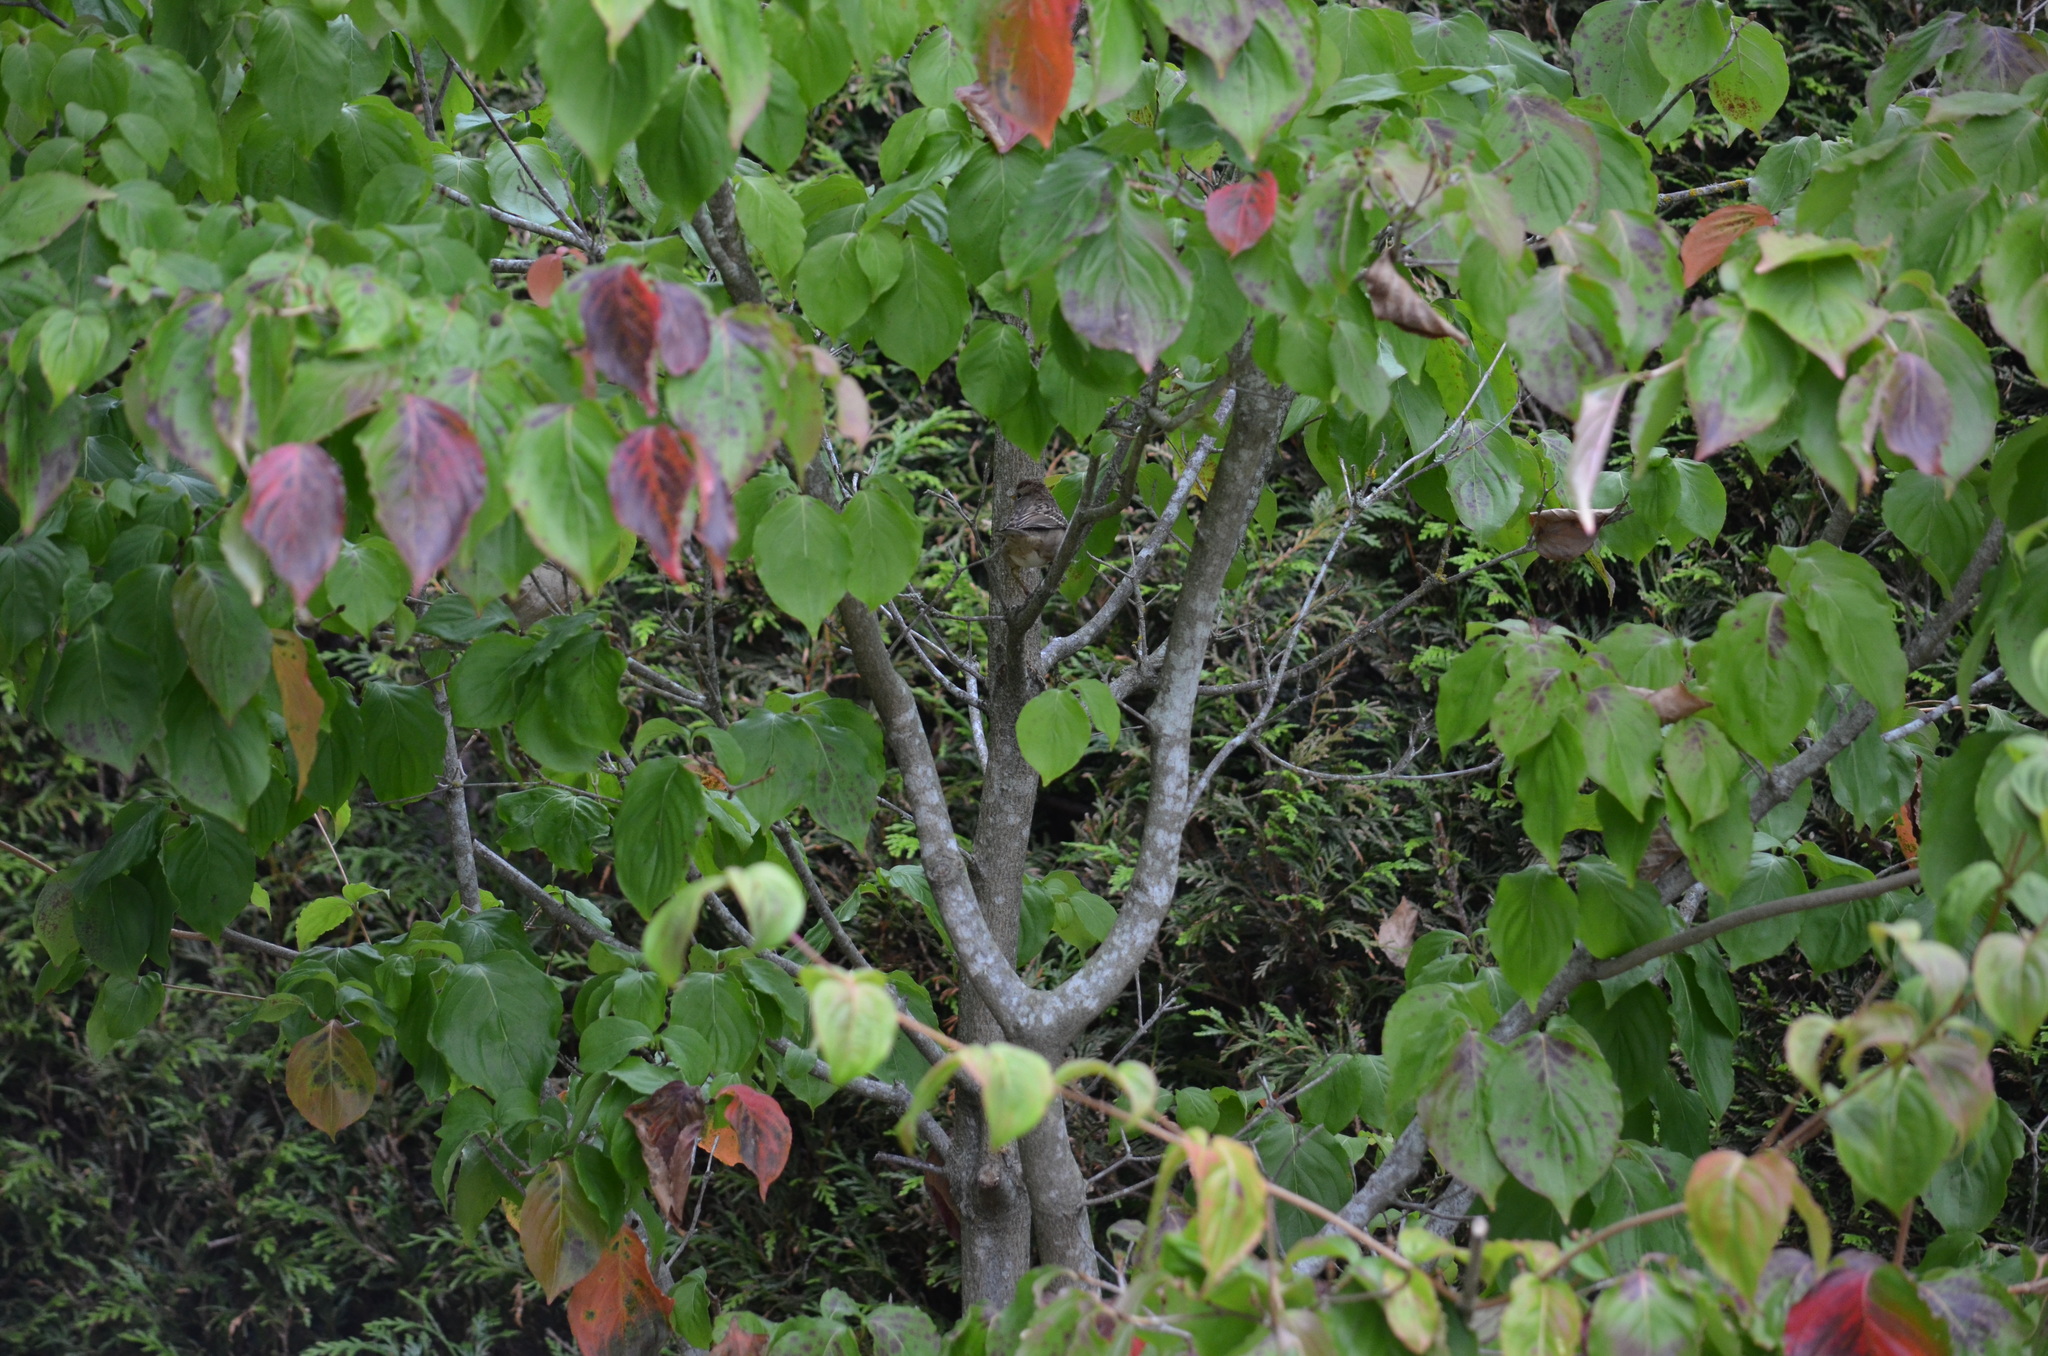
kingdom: Animalia
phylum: Chordata
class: Aves
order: Passeriformes
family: Passerellidae
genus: Zonotrichia
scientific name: Zonotrichia leucophrys
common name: White-crowned sparrow
